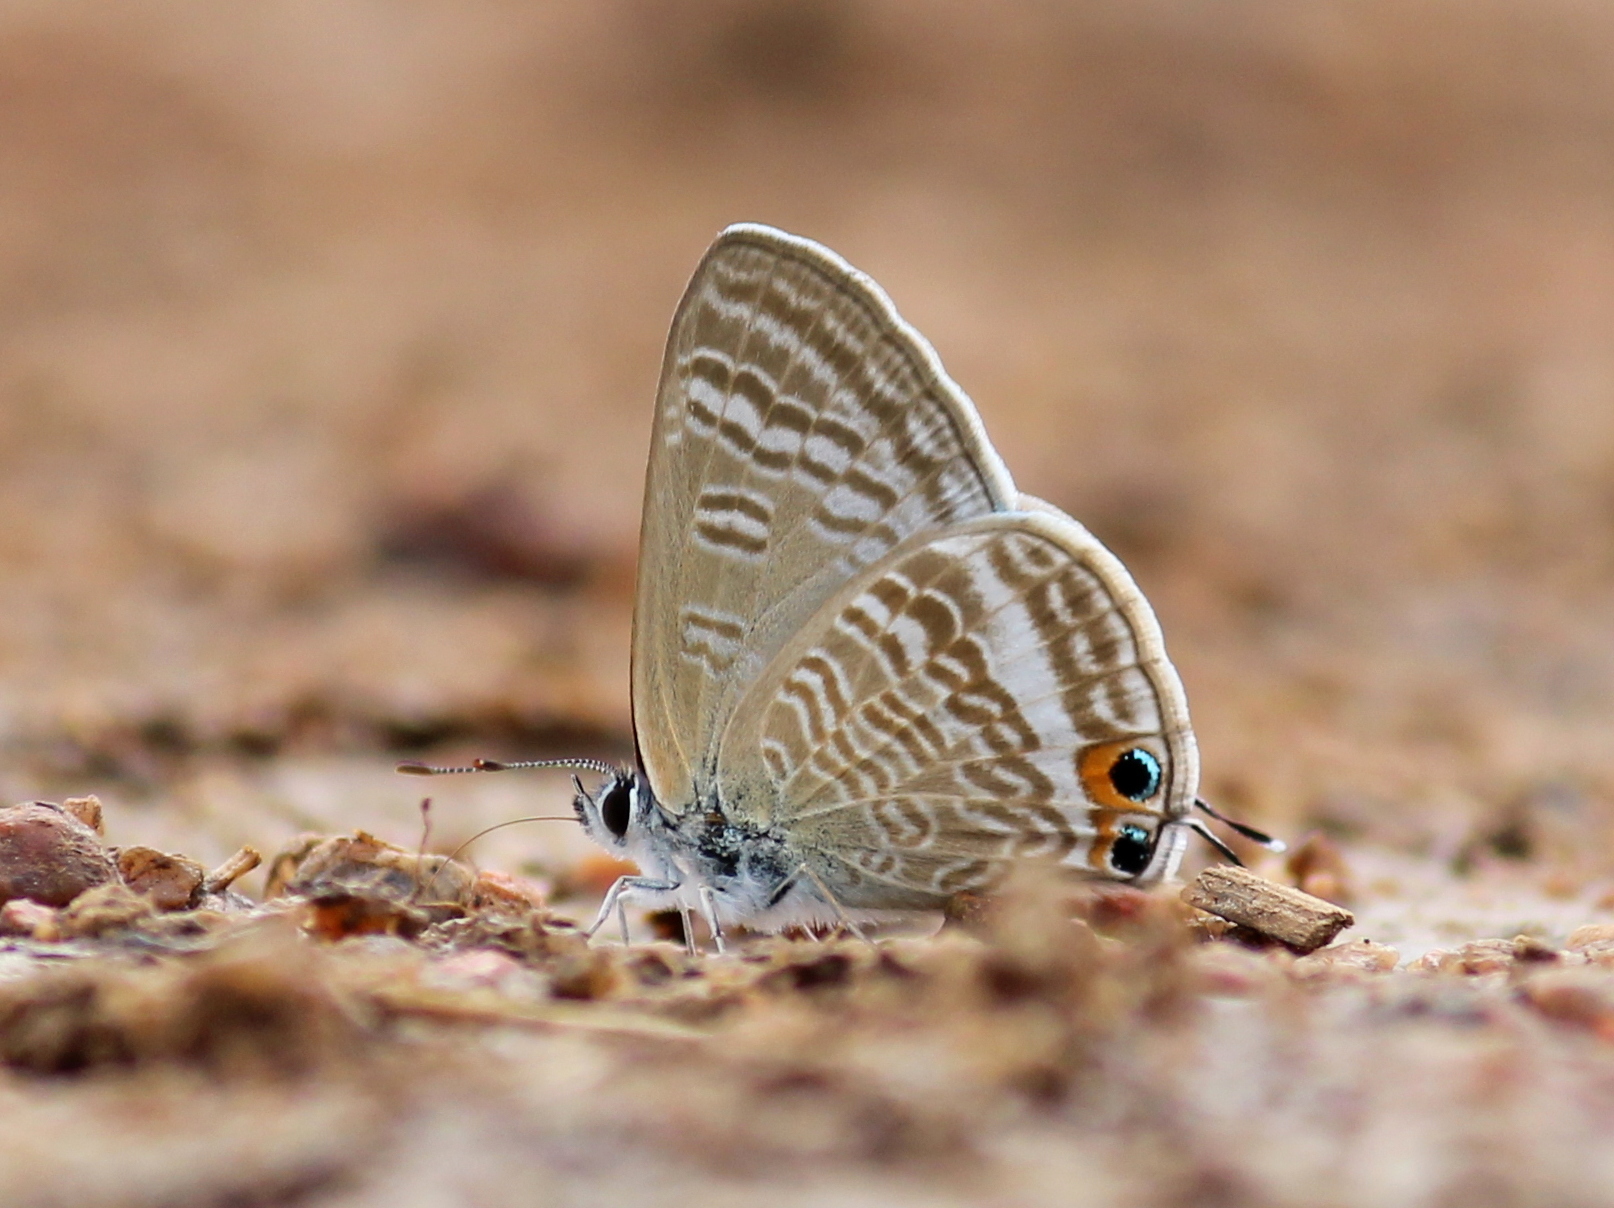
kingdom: Animalia
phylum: Arthropoda
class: Insecta
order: Lepidoptera
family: Lycaenidae
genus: Lampides
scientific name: Lampides boeticus
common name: Long-tailed blue
